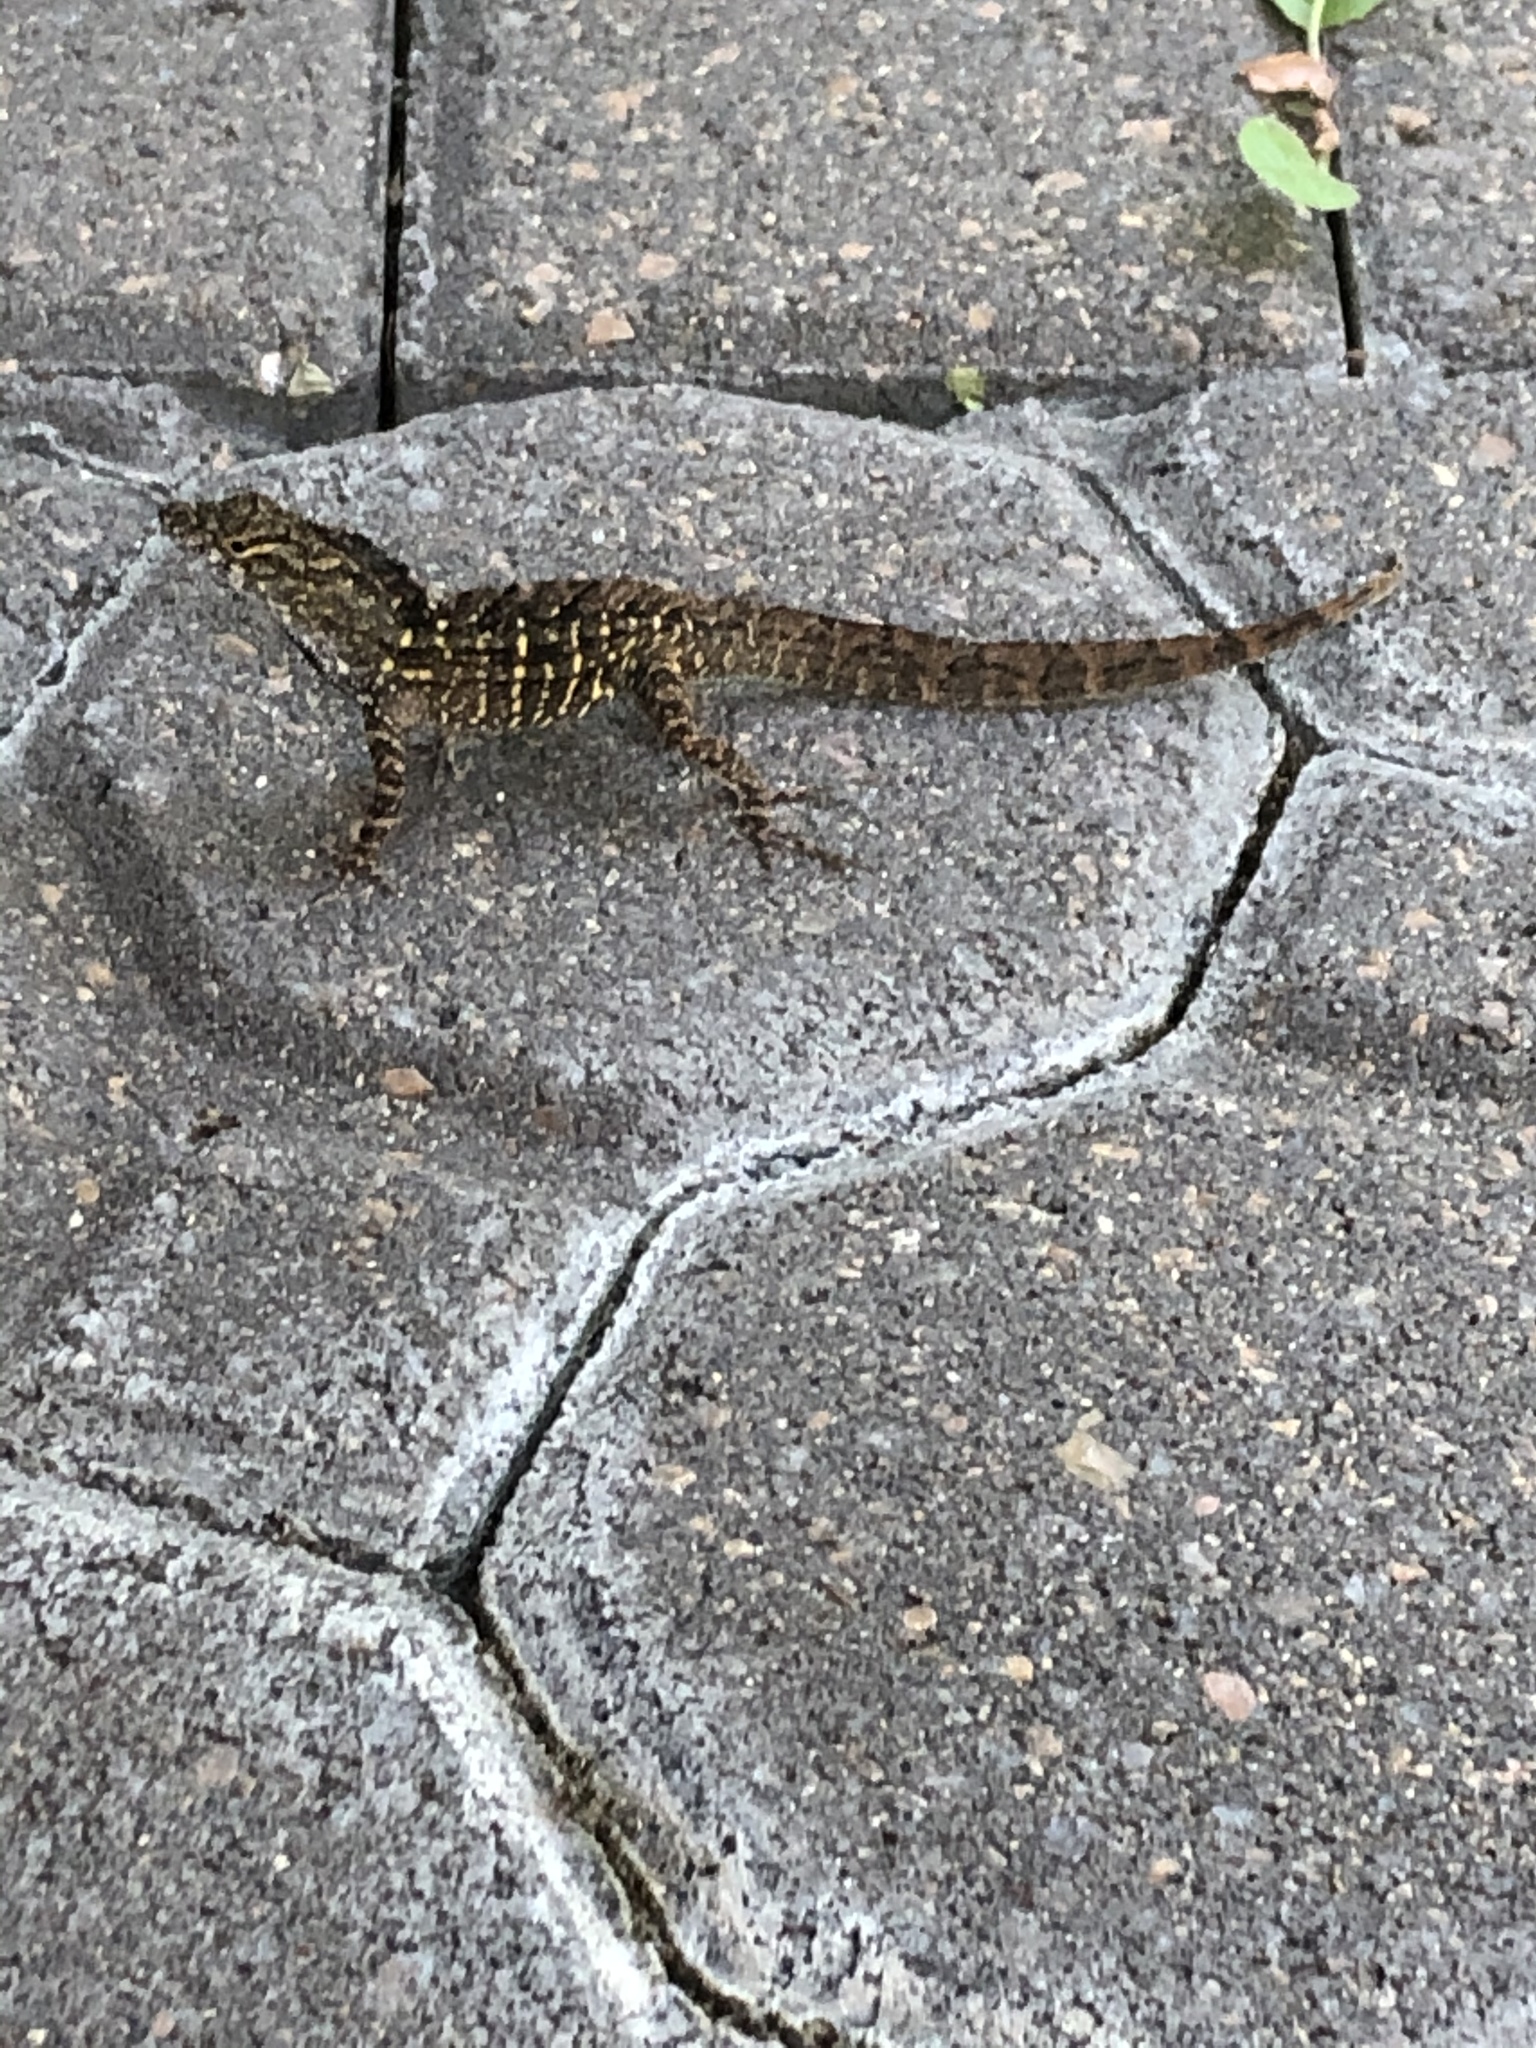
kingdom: Animalia
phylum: Chordata
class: Squamata
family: Dactyloidae
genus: Anolis
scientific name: Anolis sagrei
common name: Brown anole
